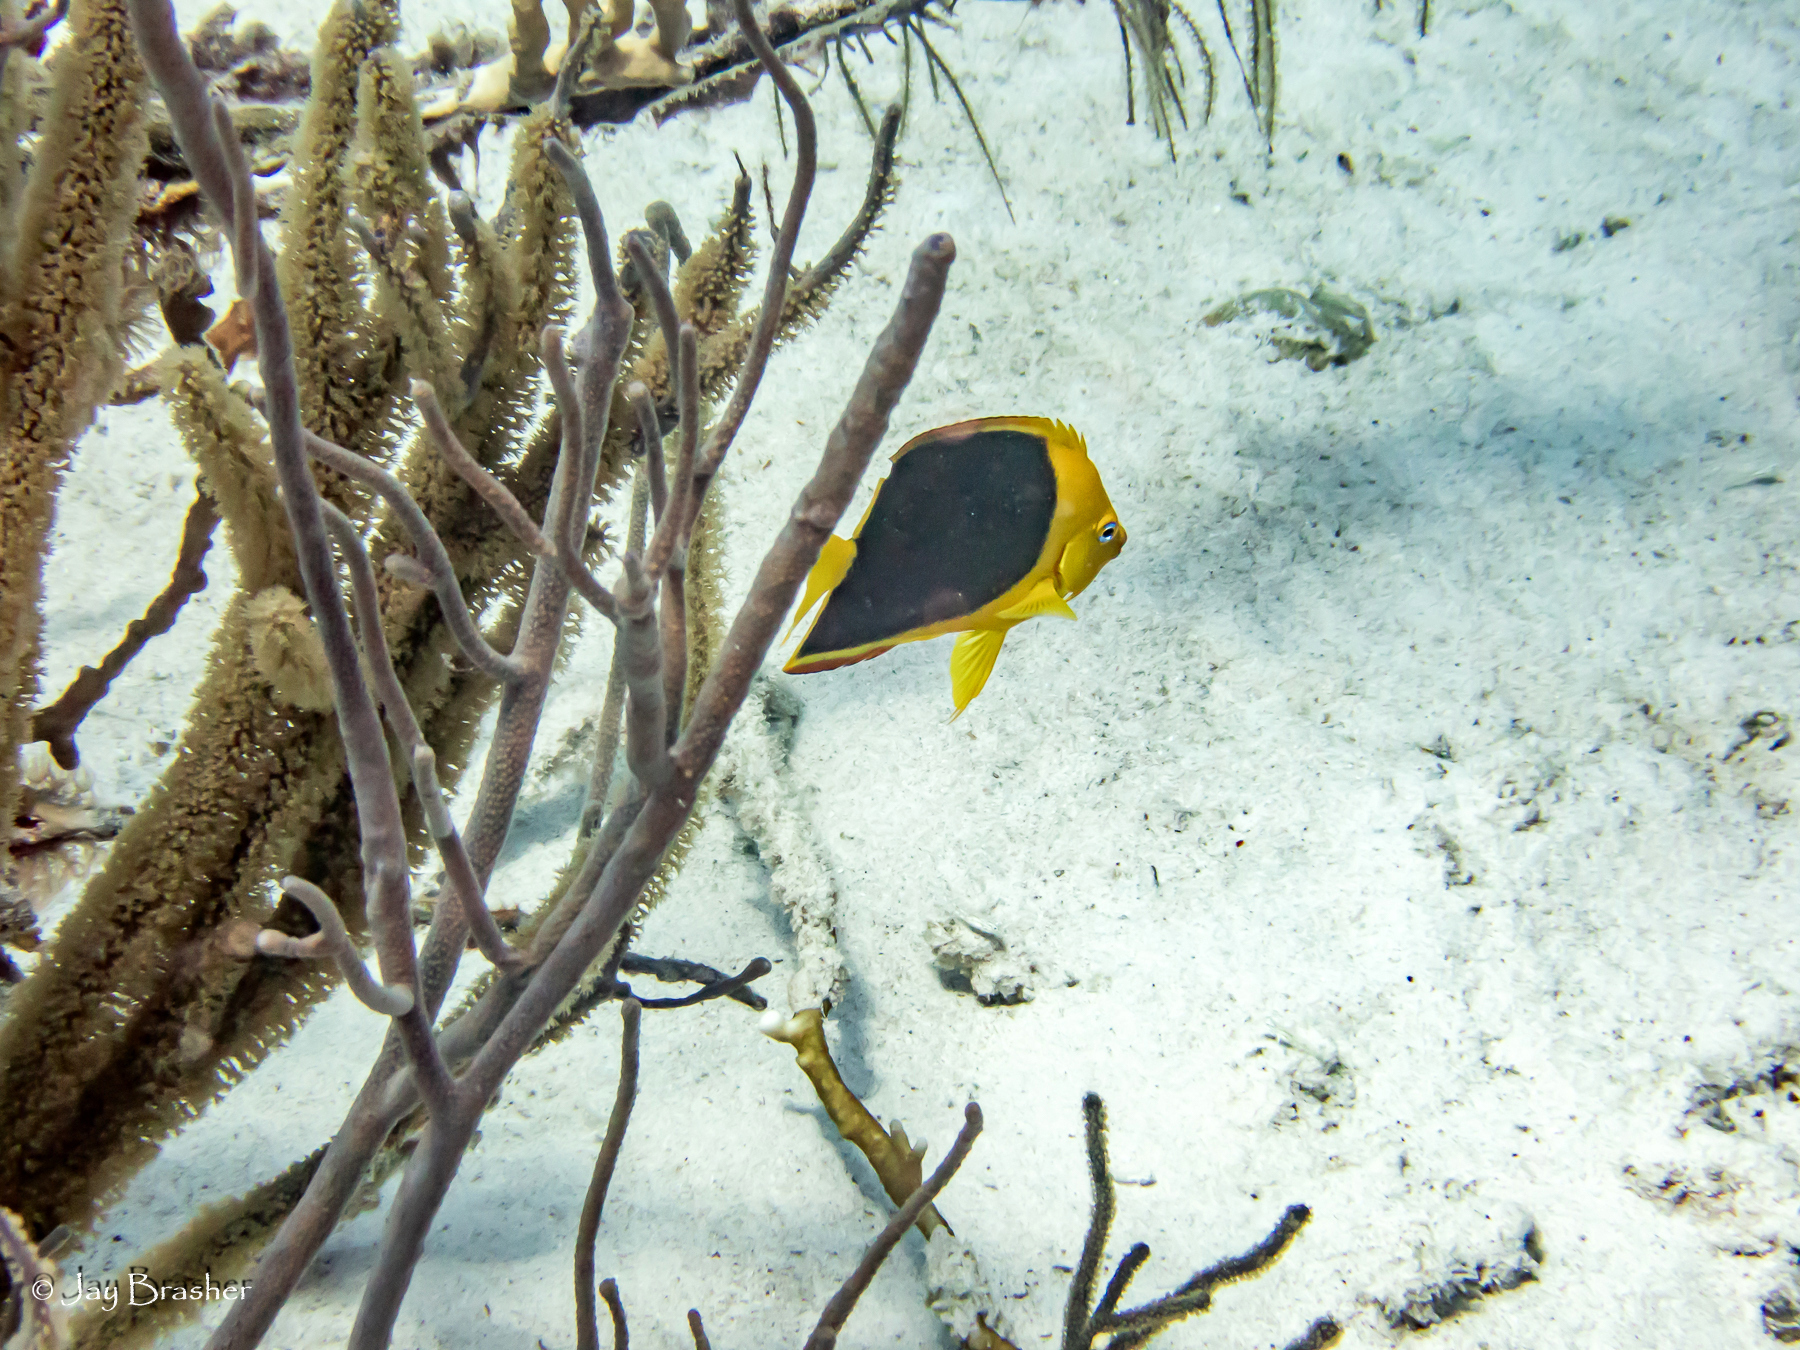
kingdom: Animalia
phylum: Chordata
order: Perciformes
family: Pomacanthidae
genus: Holacanthus
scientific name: Holacanthus tricolor
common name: Rock beauty
